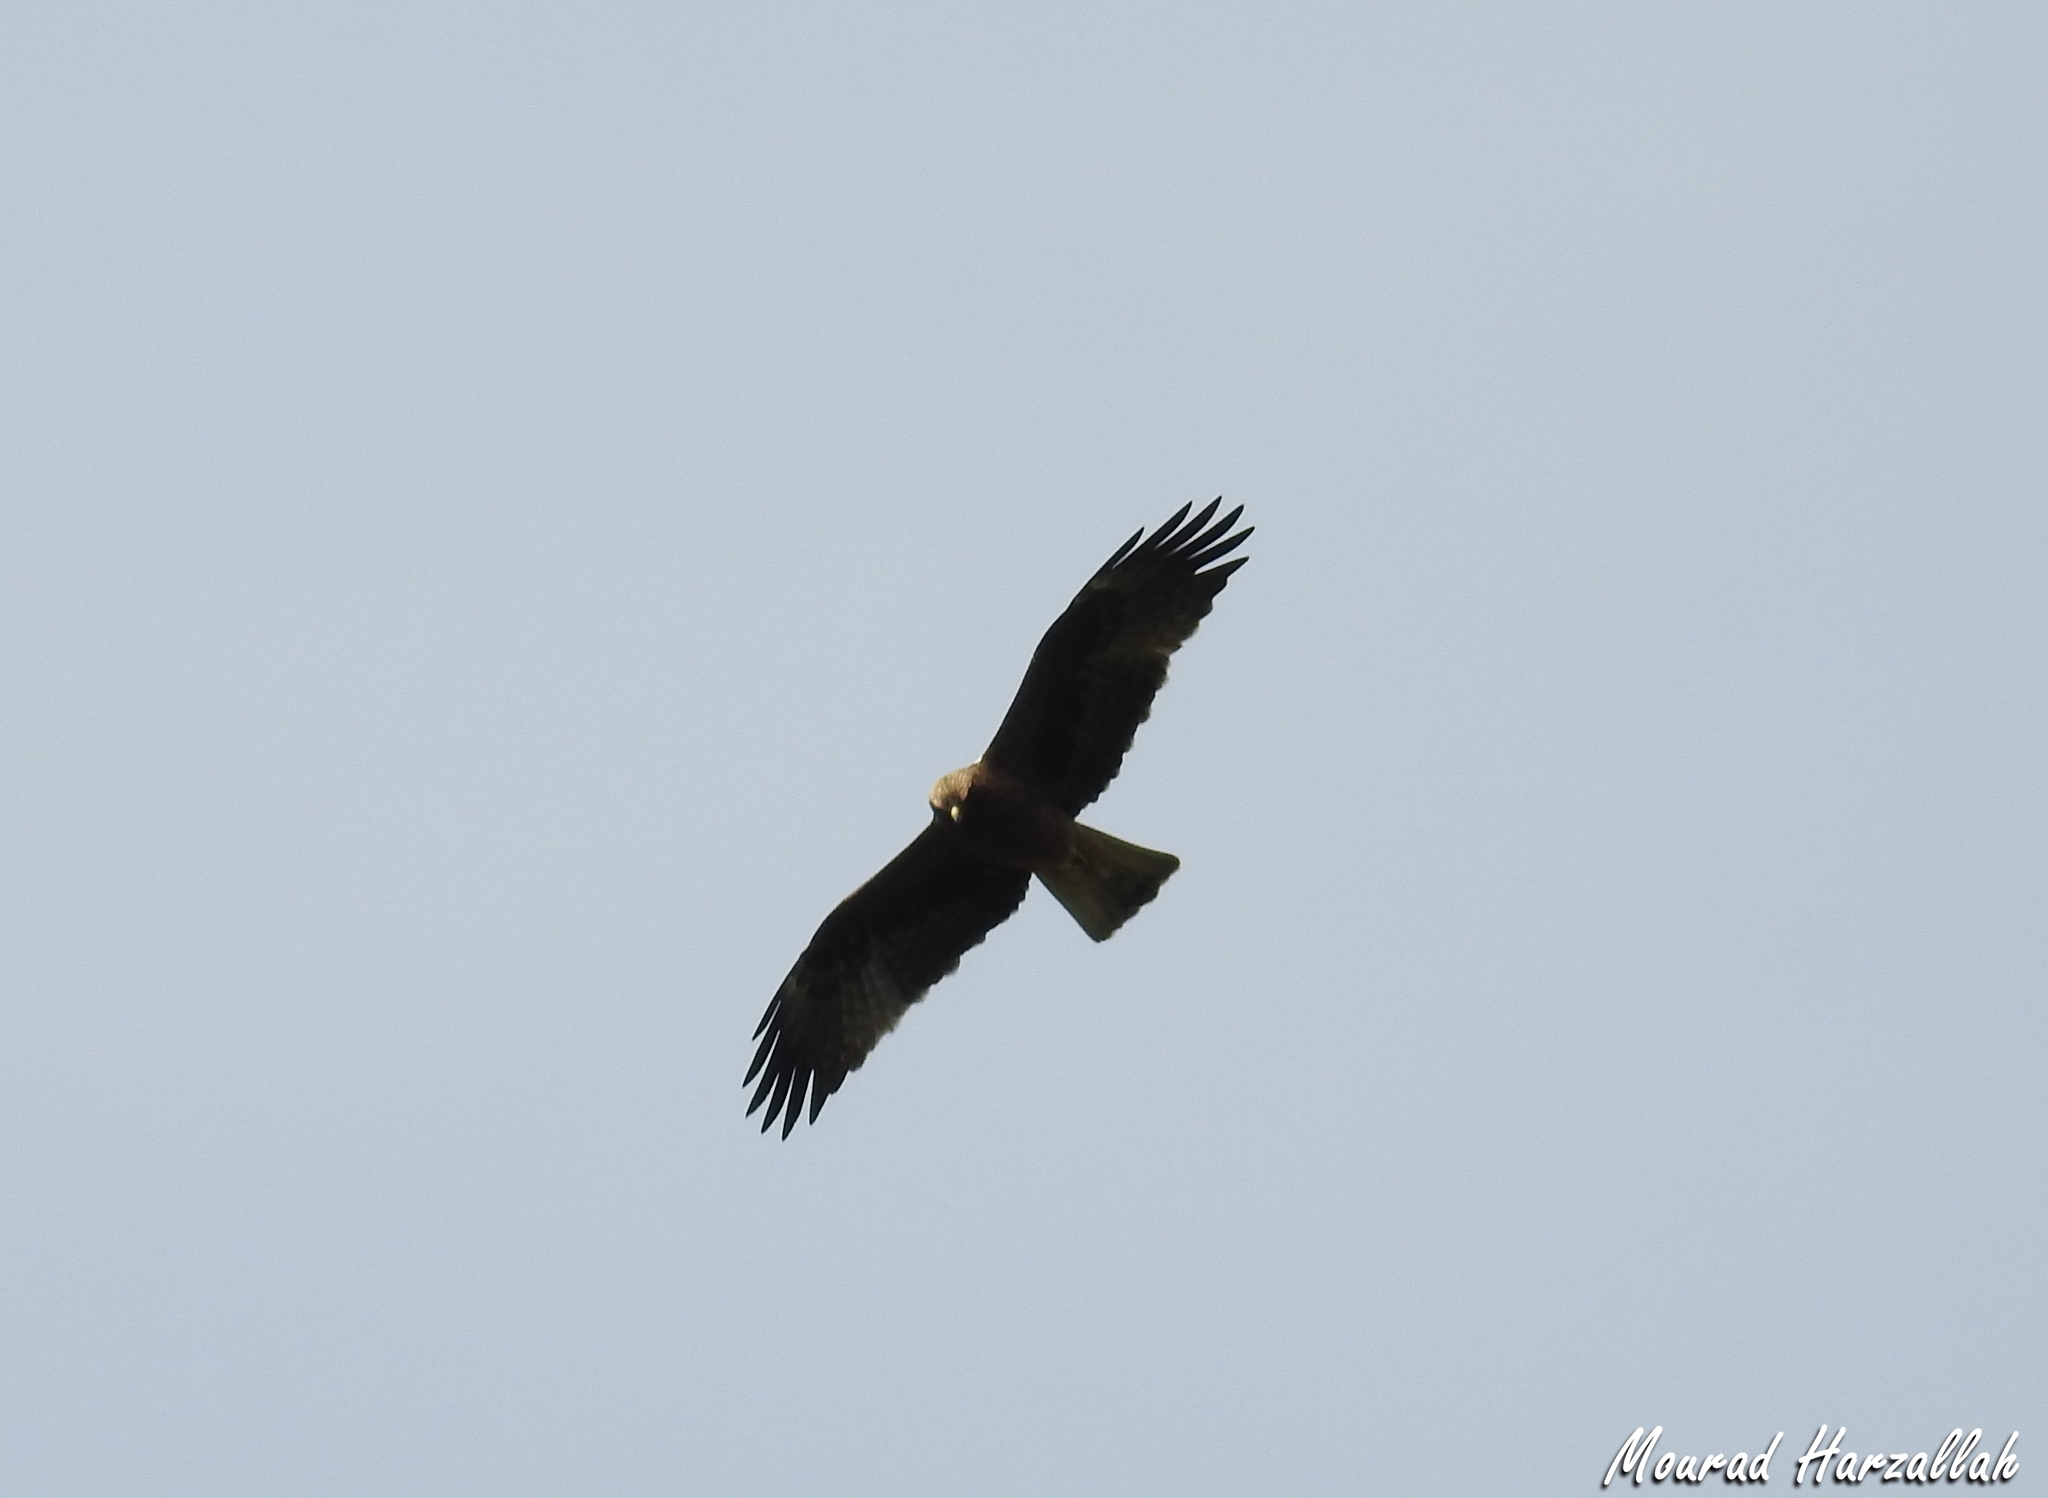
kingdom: Animalia
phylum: Chordata
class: Aves
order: Accipitriformes
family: Accipitridae
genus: Hieraaetus
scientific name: Hieraaetus pennatus
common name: Booted eagle
